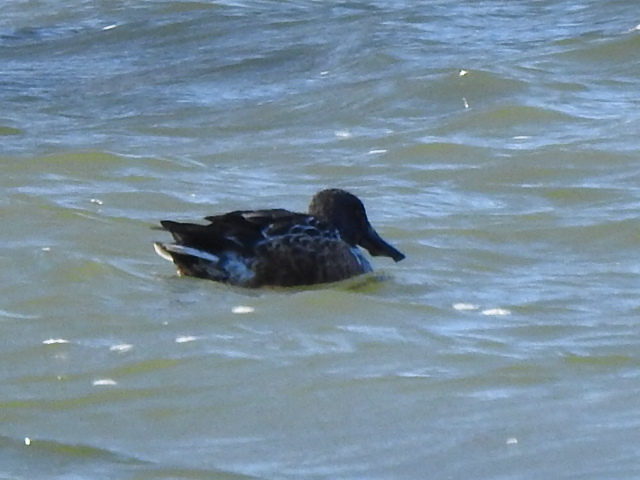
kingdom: Animalia
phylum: Chordata
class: Aves
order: Anseriformes
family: Anatidae
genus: Spatula
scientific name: Spatula clypeata
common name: Northern shoveler
